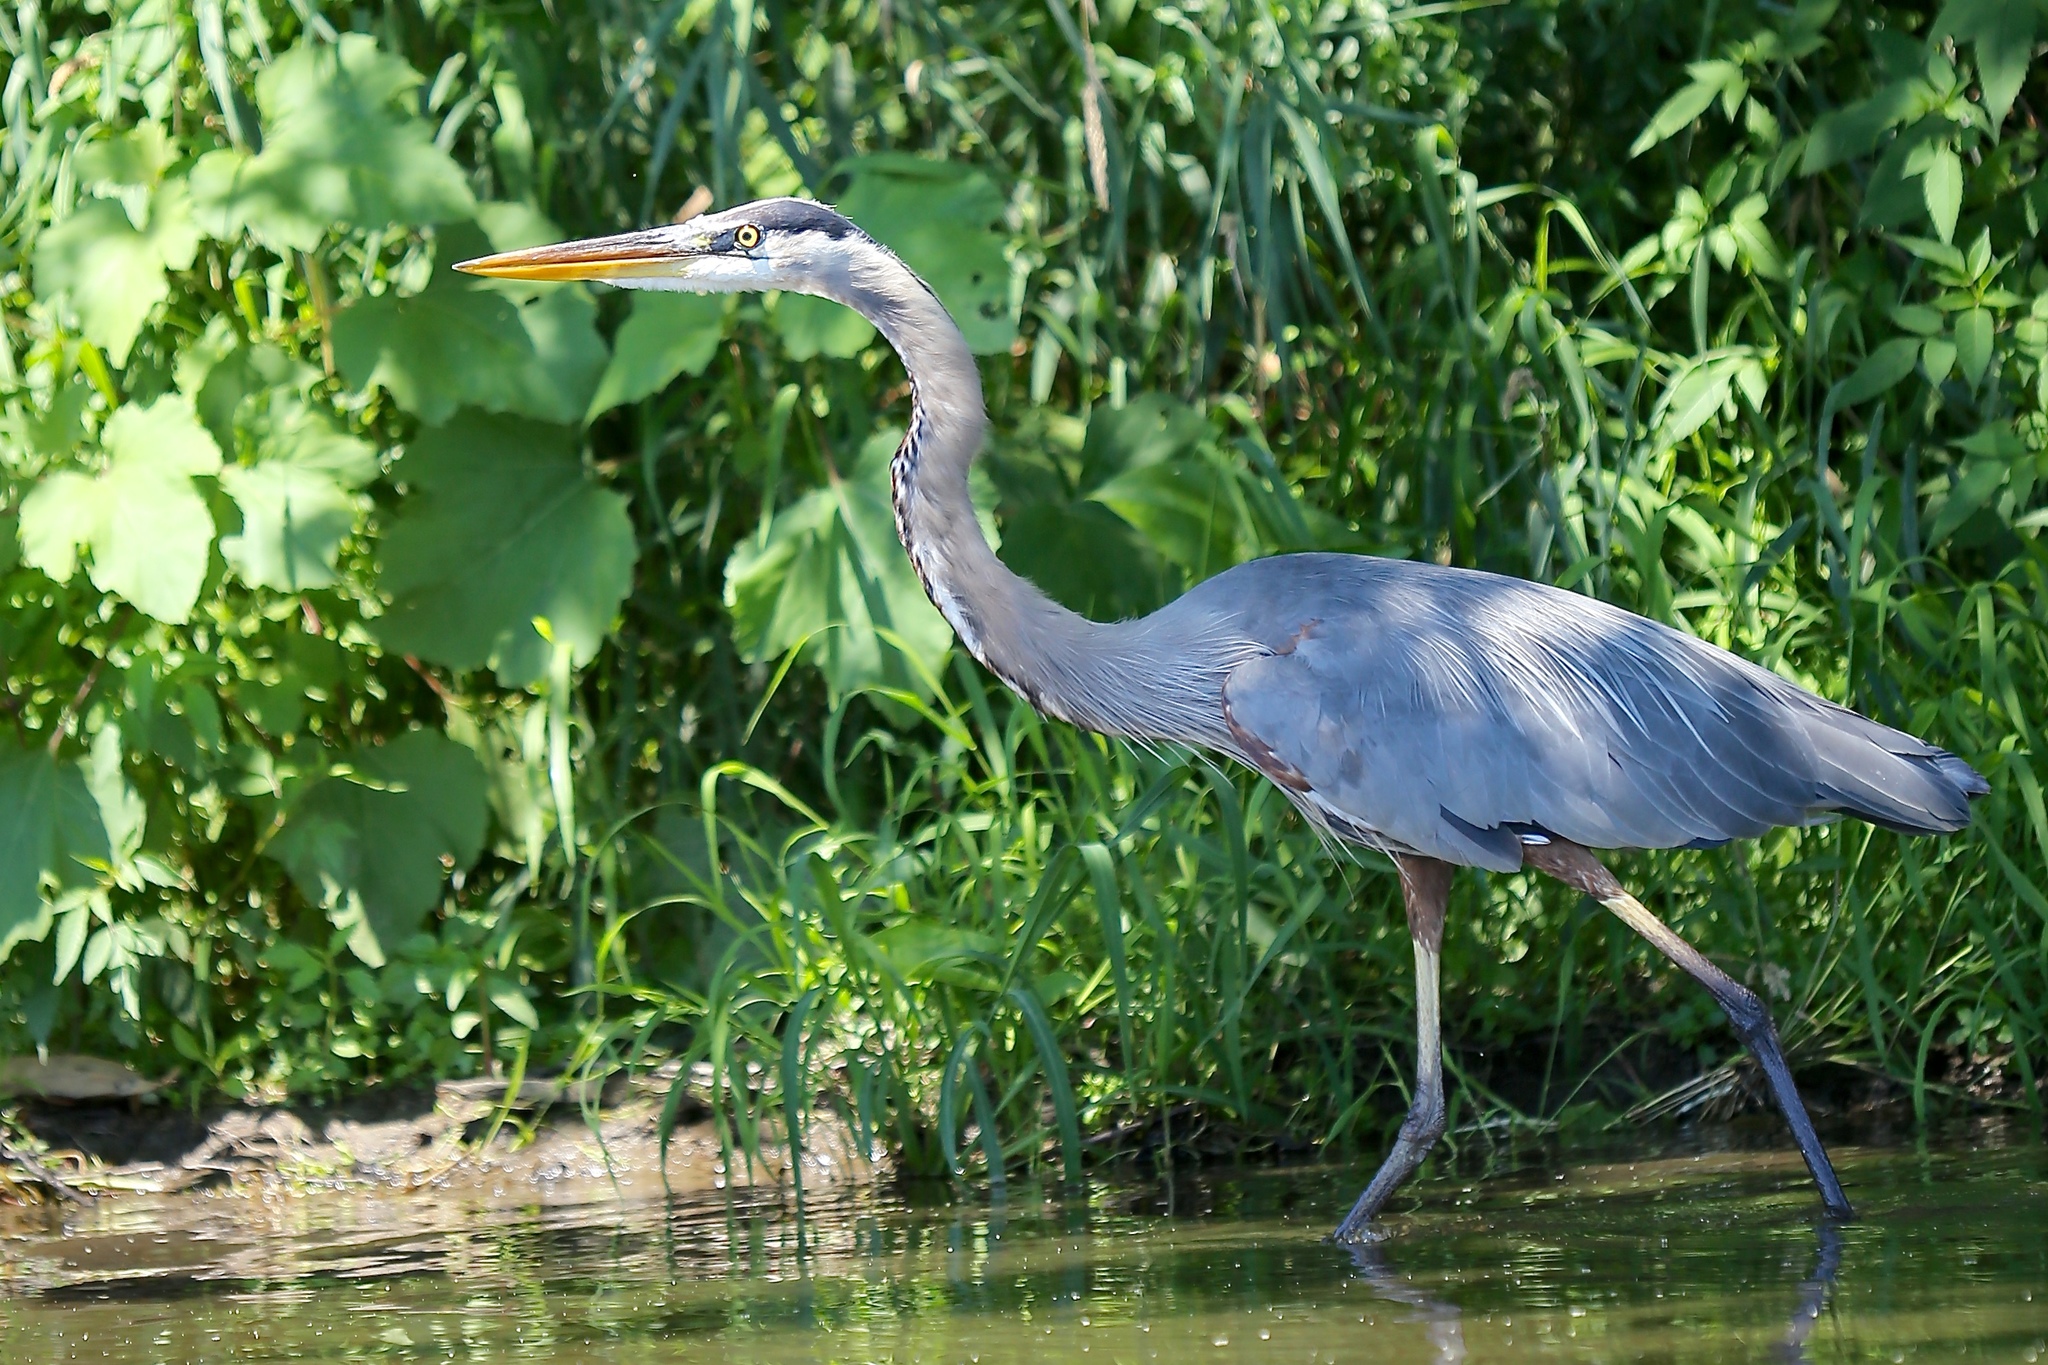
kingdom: Animalia
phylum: Chordata
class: Aves
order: Pelecaniformes
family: Ardeidae
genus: Ardea
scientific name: Ardea herodias
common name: Great blue heron
